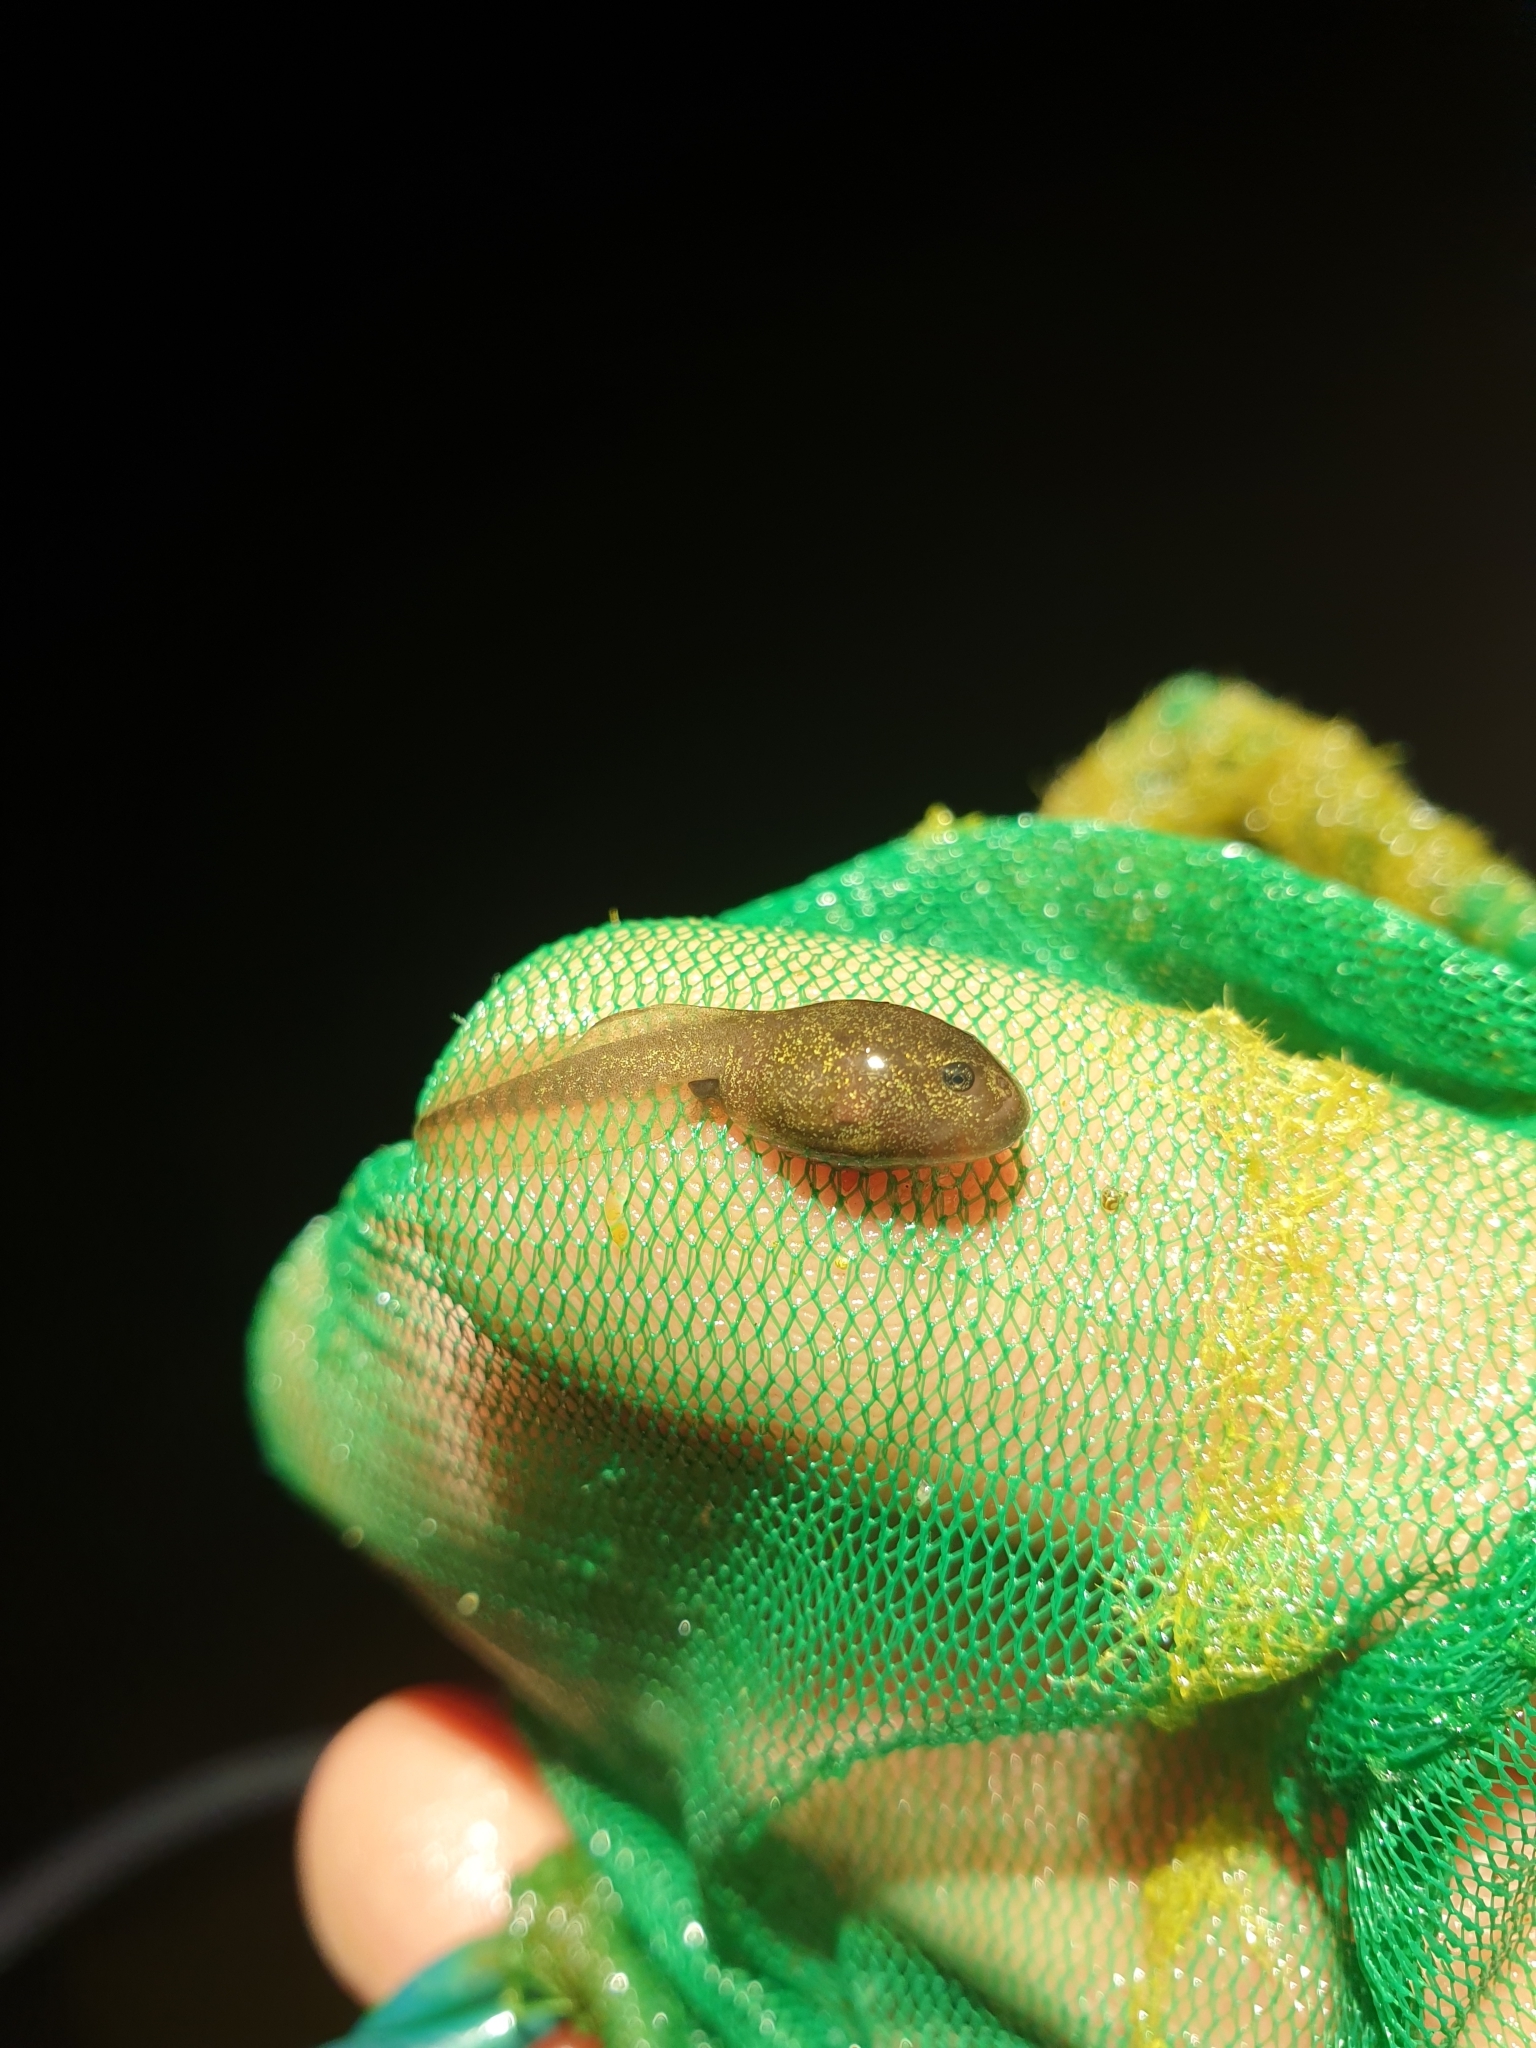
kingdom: Animalia
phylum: Chordata
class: Amphibia
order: Anura
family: Ranidae
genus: Rana
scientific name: Rana temporaria
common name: Common frog
